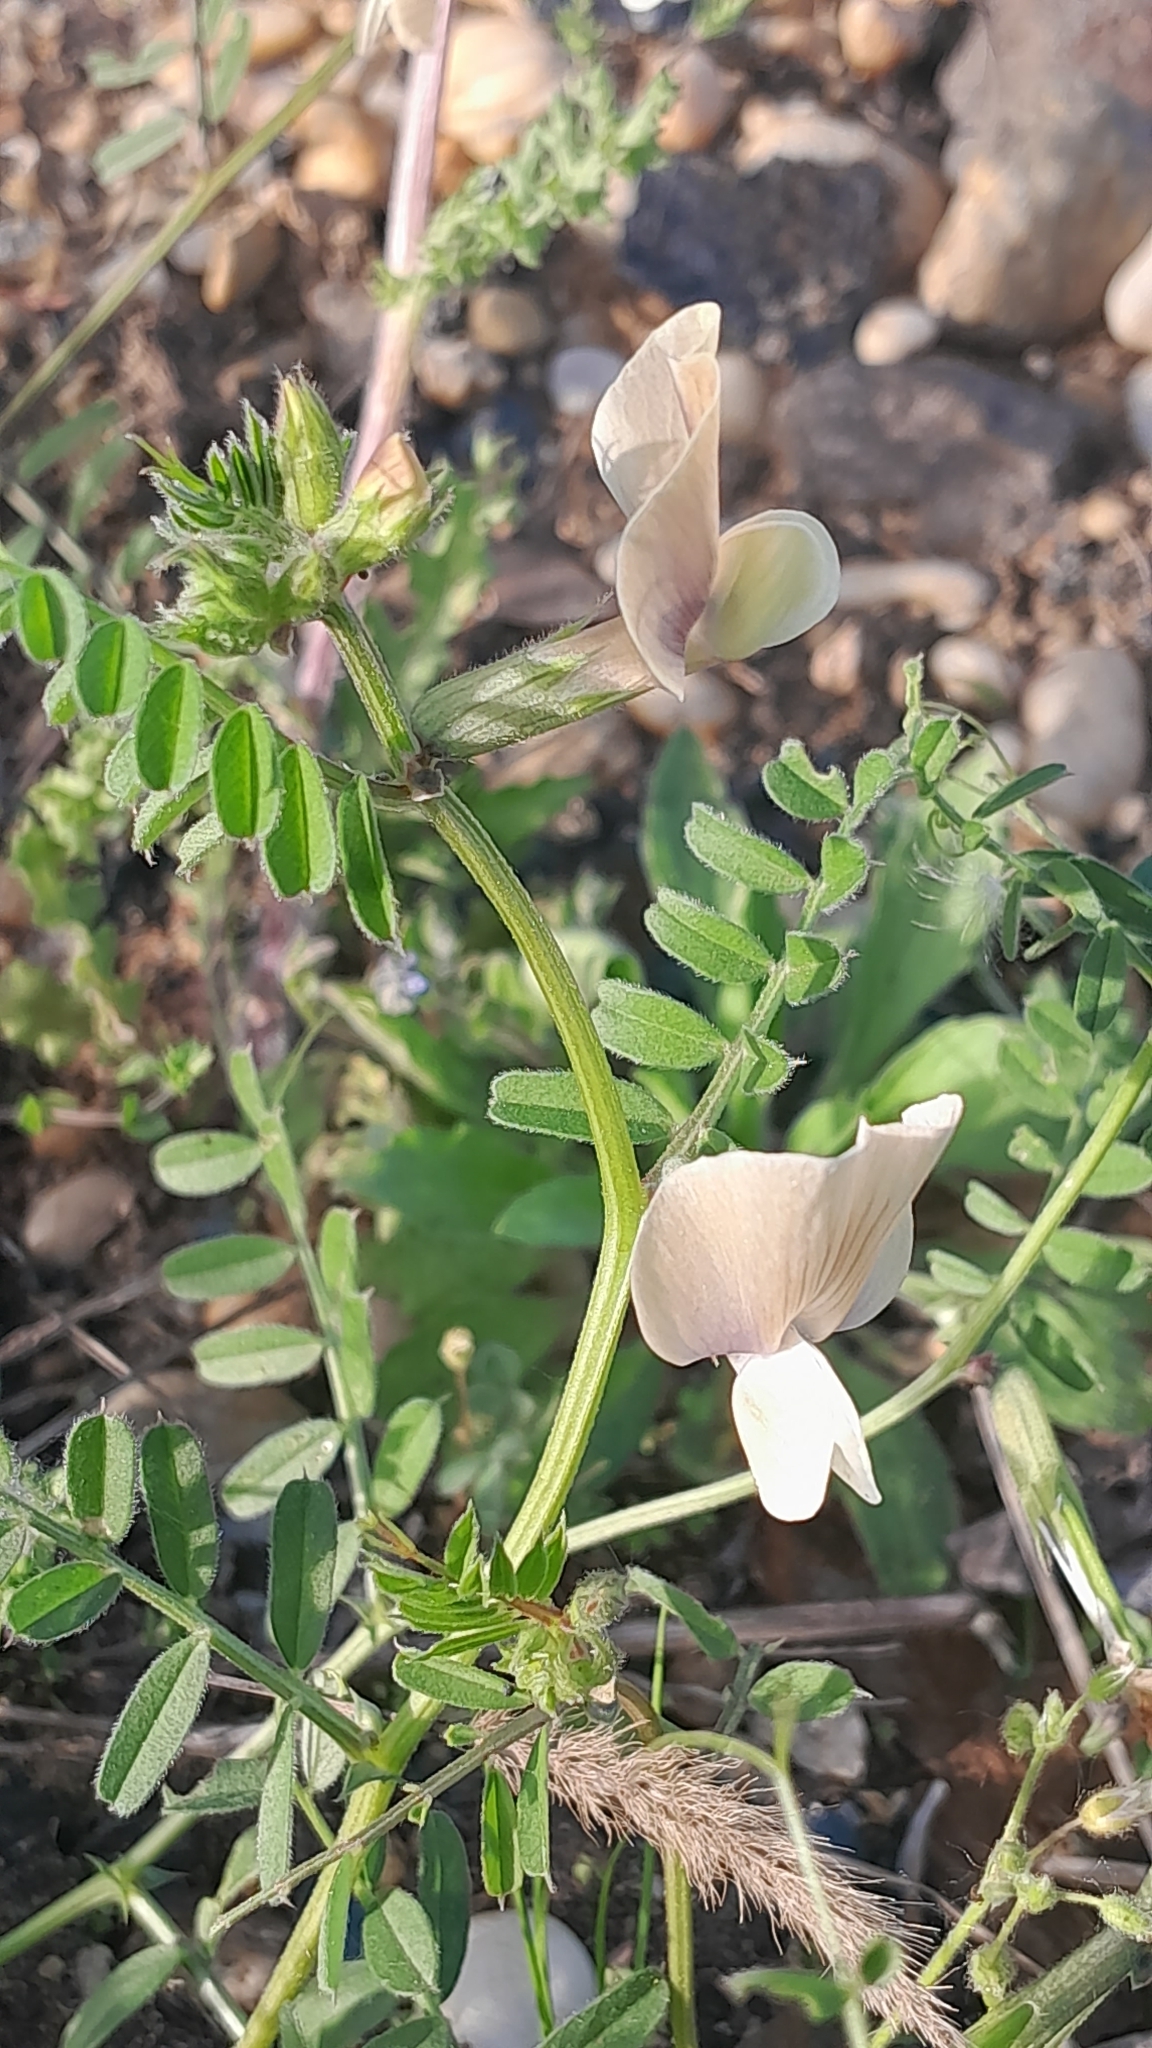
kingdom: Plantae
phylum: Tracheophyta
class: Magnoliopsida
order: Fabales
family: Fabaceae
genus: Vicia
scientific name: Vicia grandiflora
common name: Large yellow vetch
